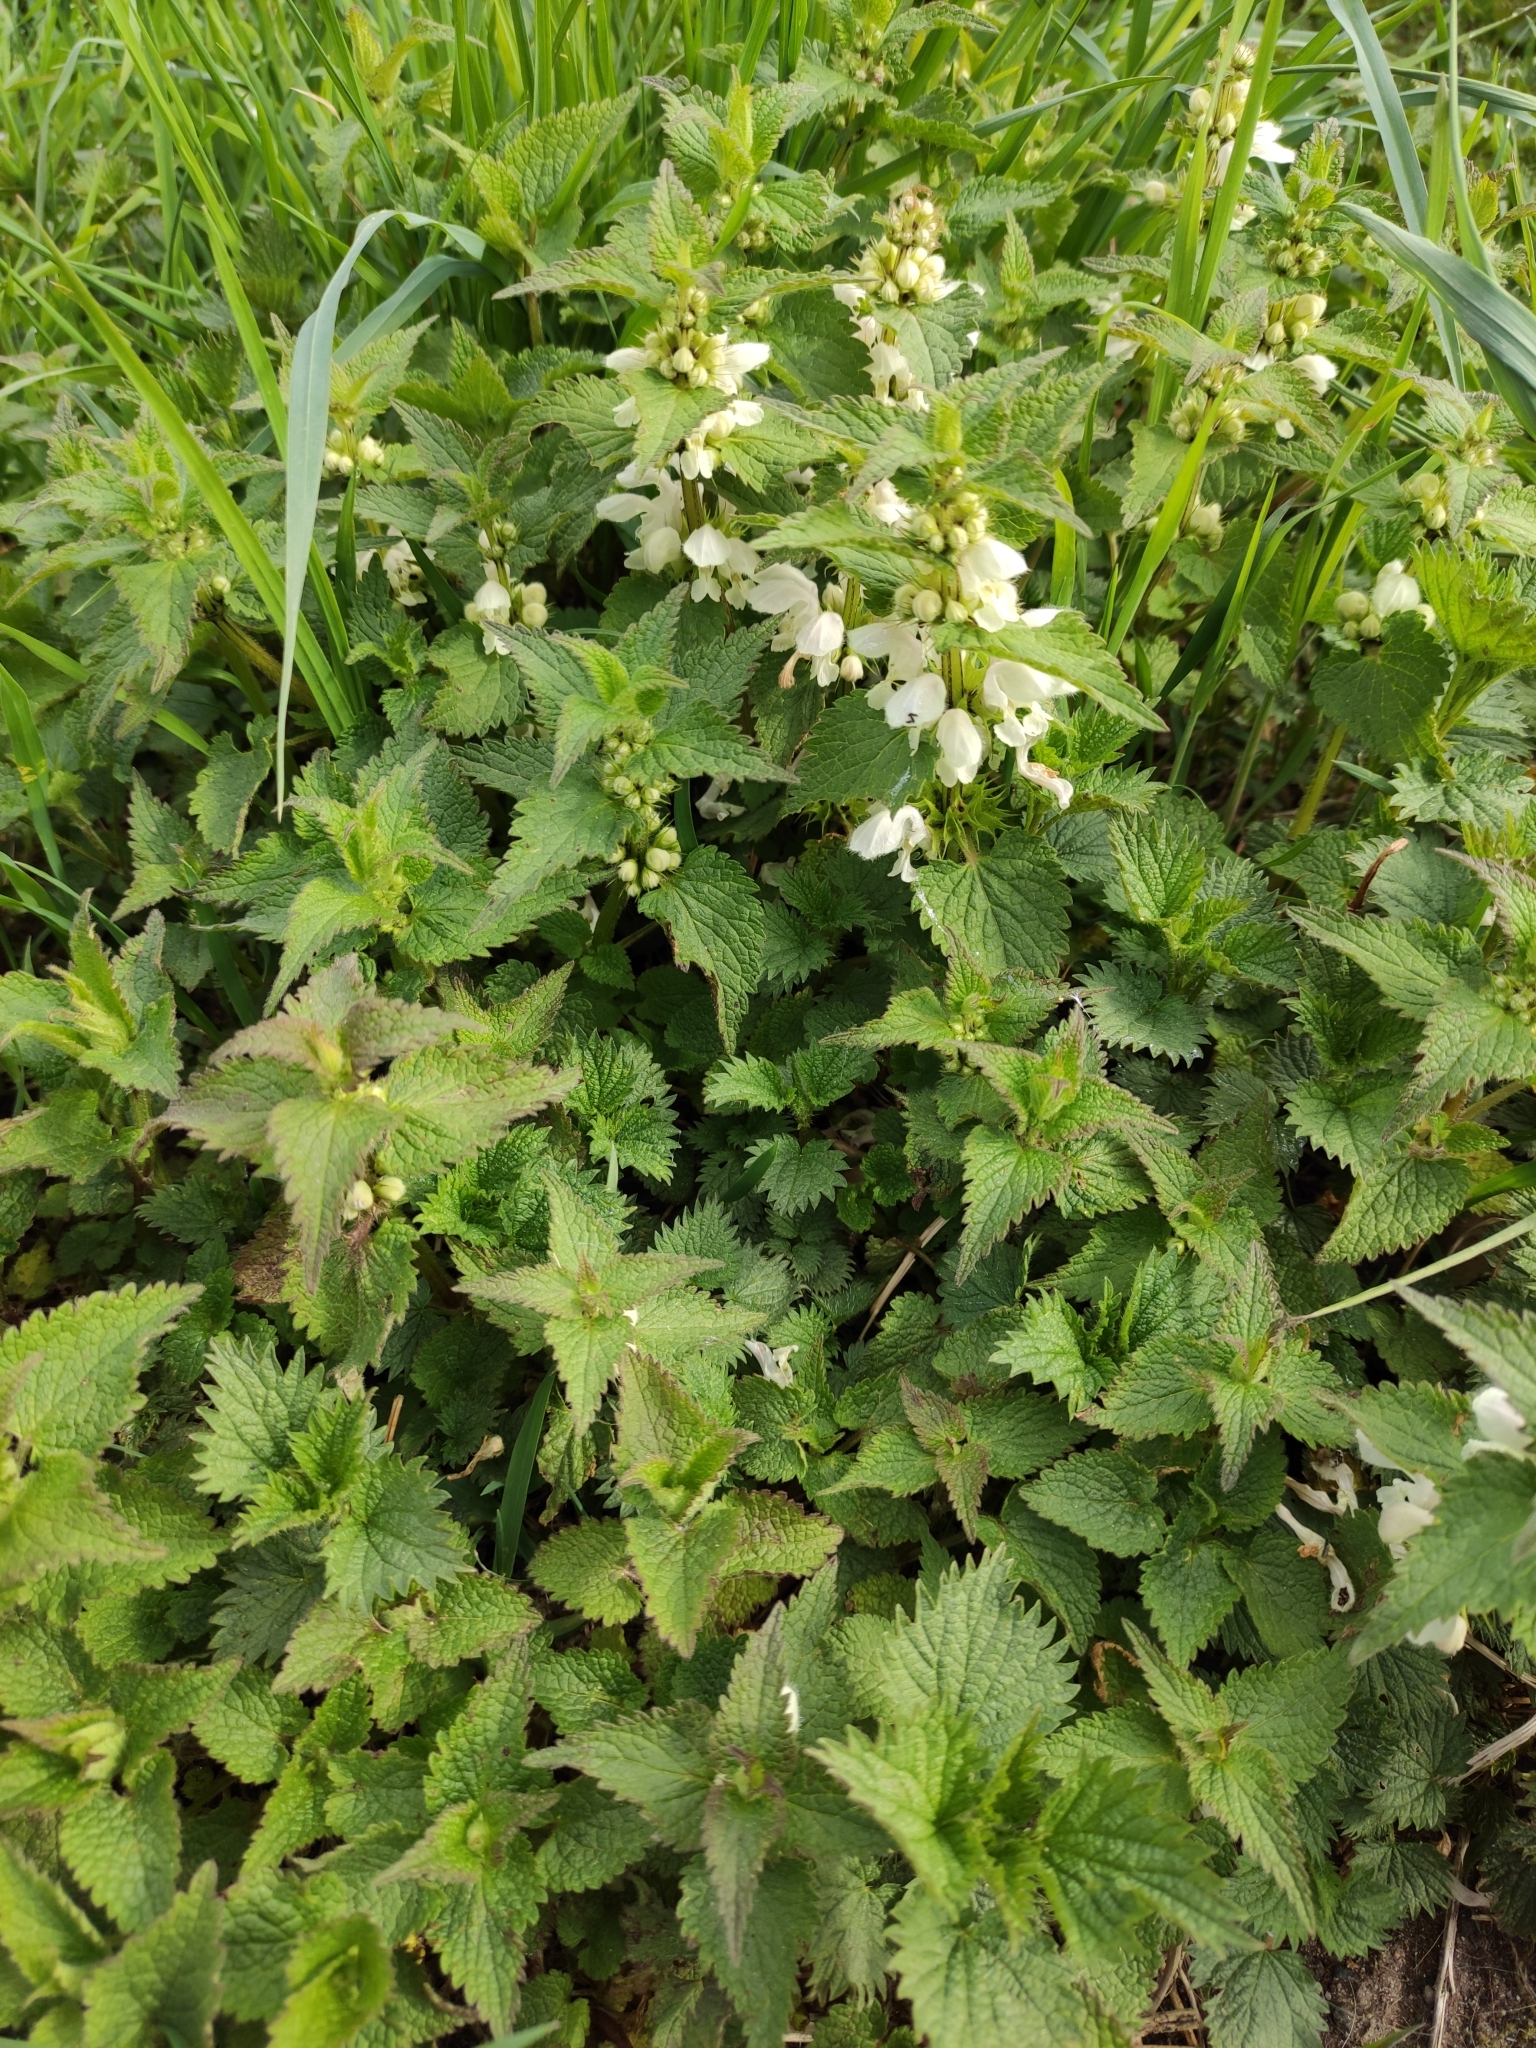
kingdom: Plantae
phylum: Tracheophyta
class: Magnoliopsida
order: Lamiales
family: Lamiaceae
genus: Lamium
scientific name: Lamium album
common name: White dead-nettle
